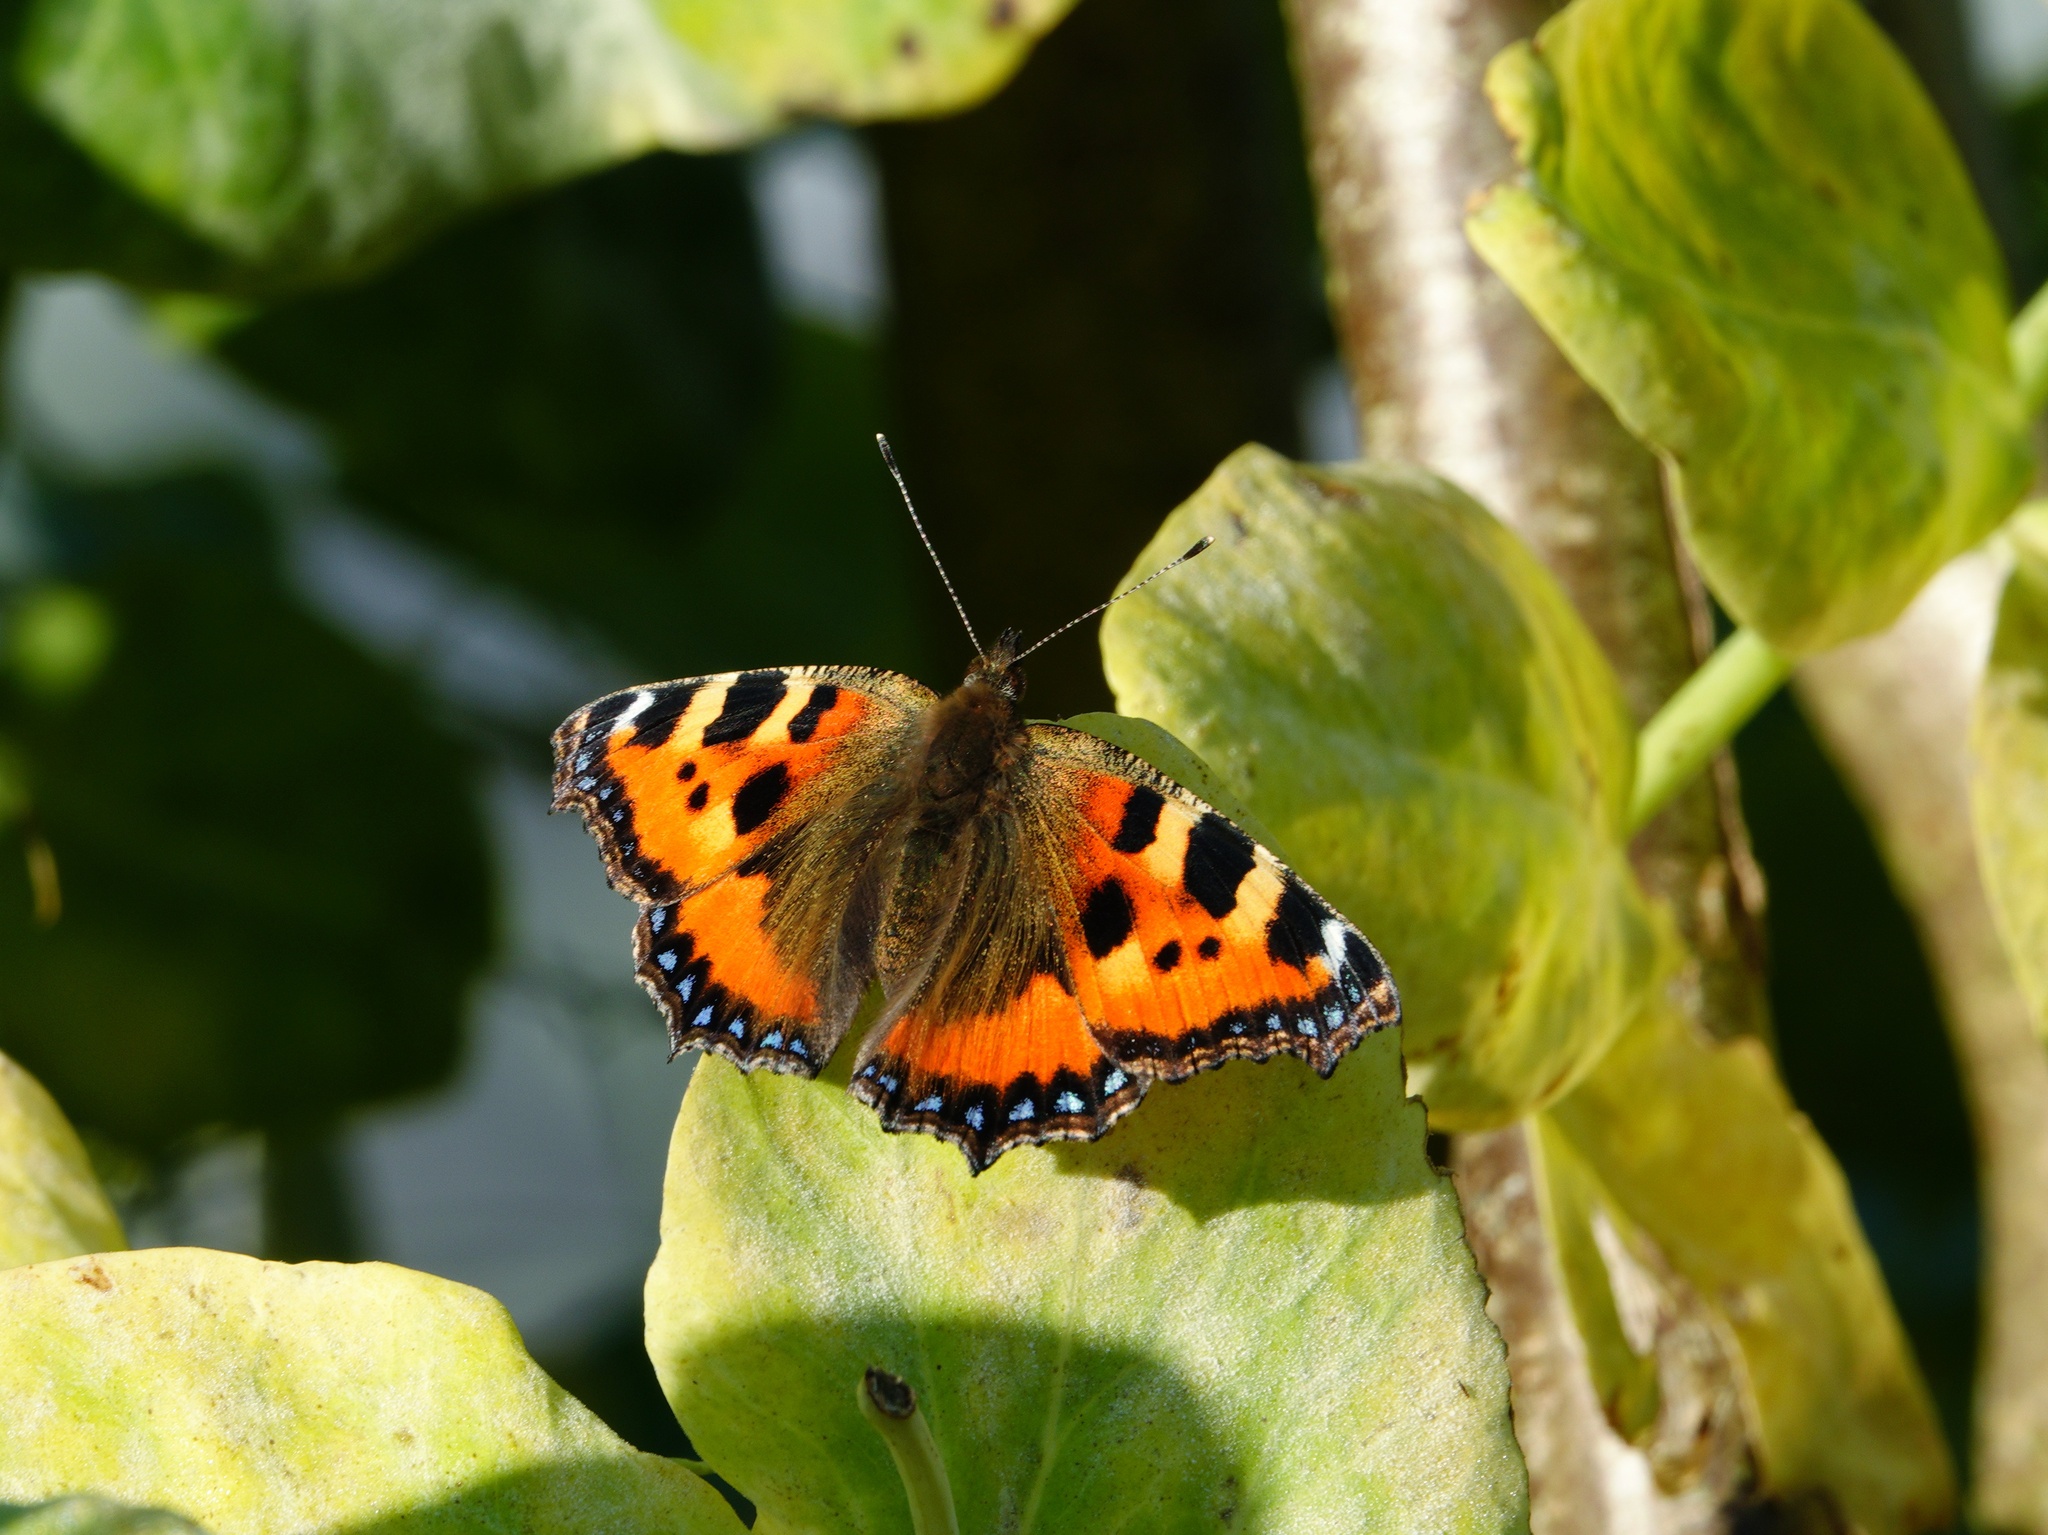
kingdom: Animalia
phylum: Arthropoda
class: Insecta
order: Lepidoptera
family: Nymphalidae
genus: Aglais
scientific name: Aglais urticae
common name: Small tortoiseshell
